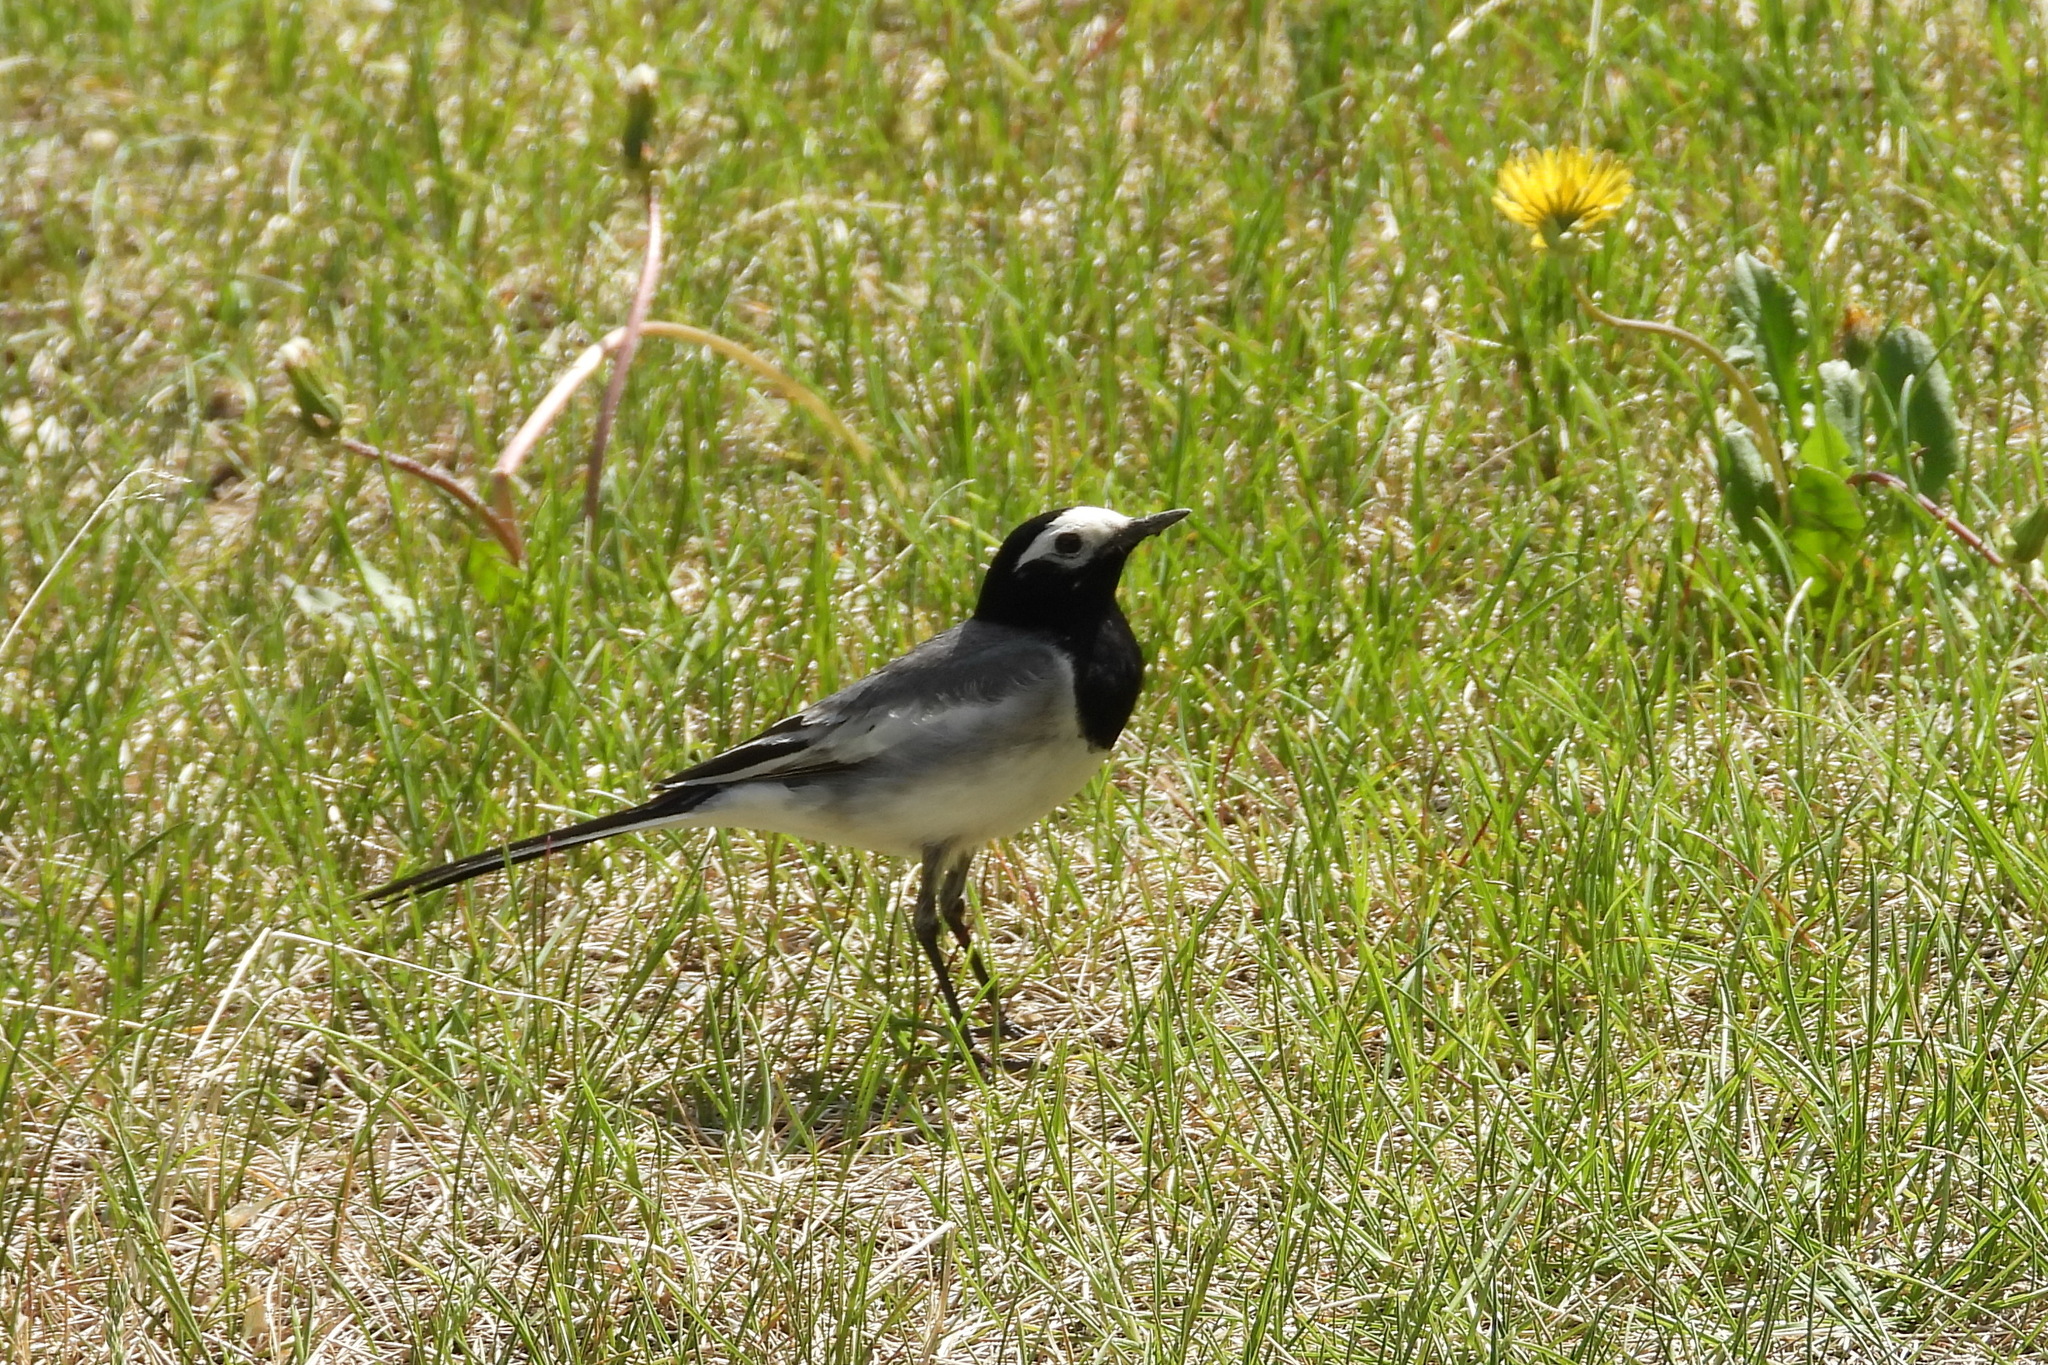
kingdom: Animalia
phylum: Chordata
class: Aves
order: Passeriformes
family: Motacillidae
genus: Motacilla
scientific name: Motacilla alba
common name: White wagtail
